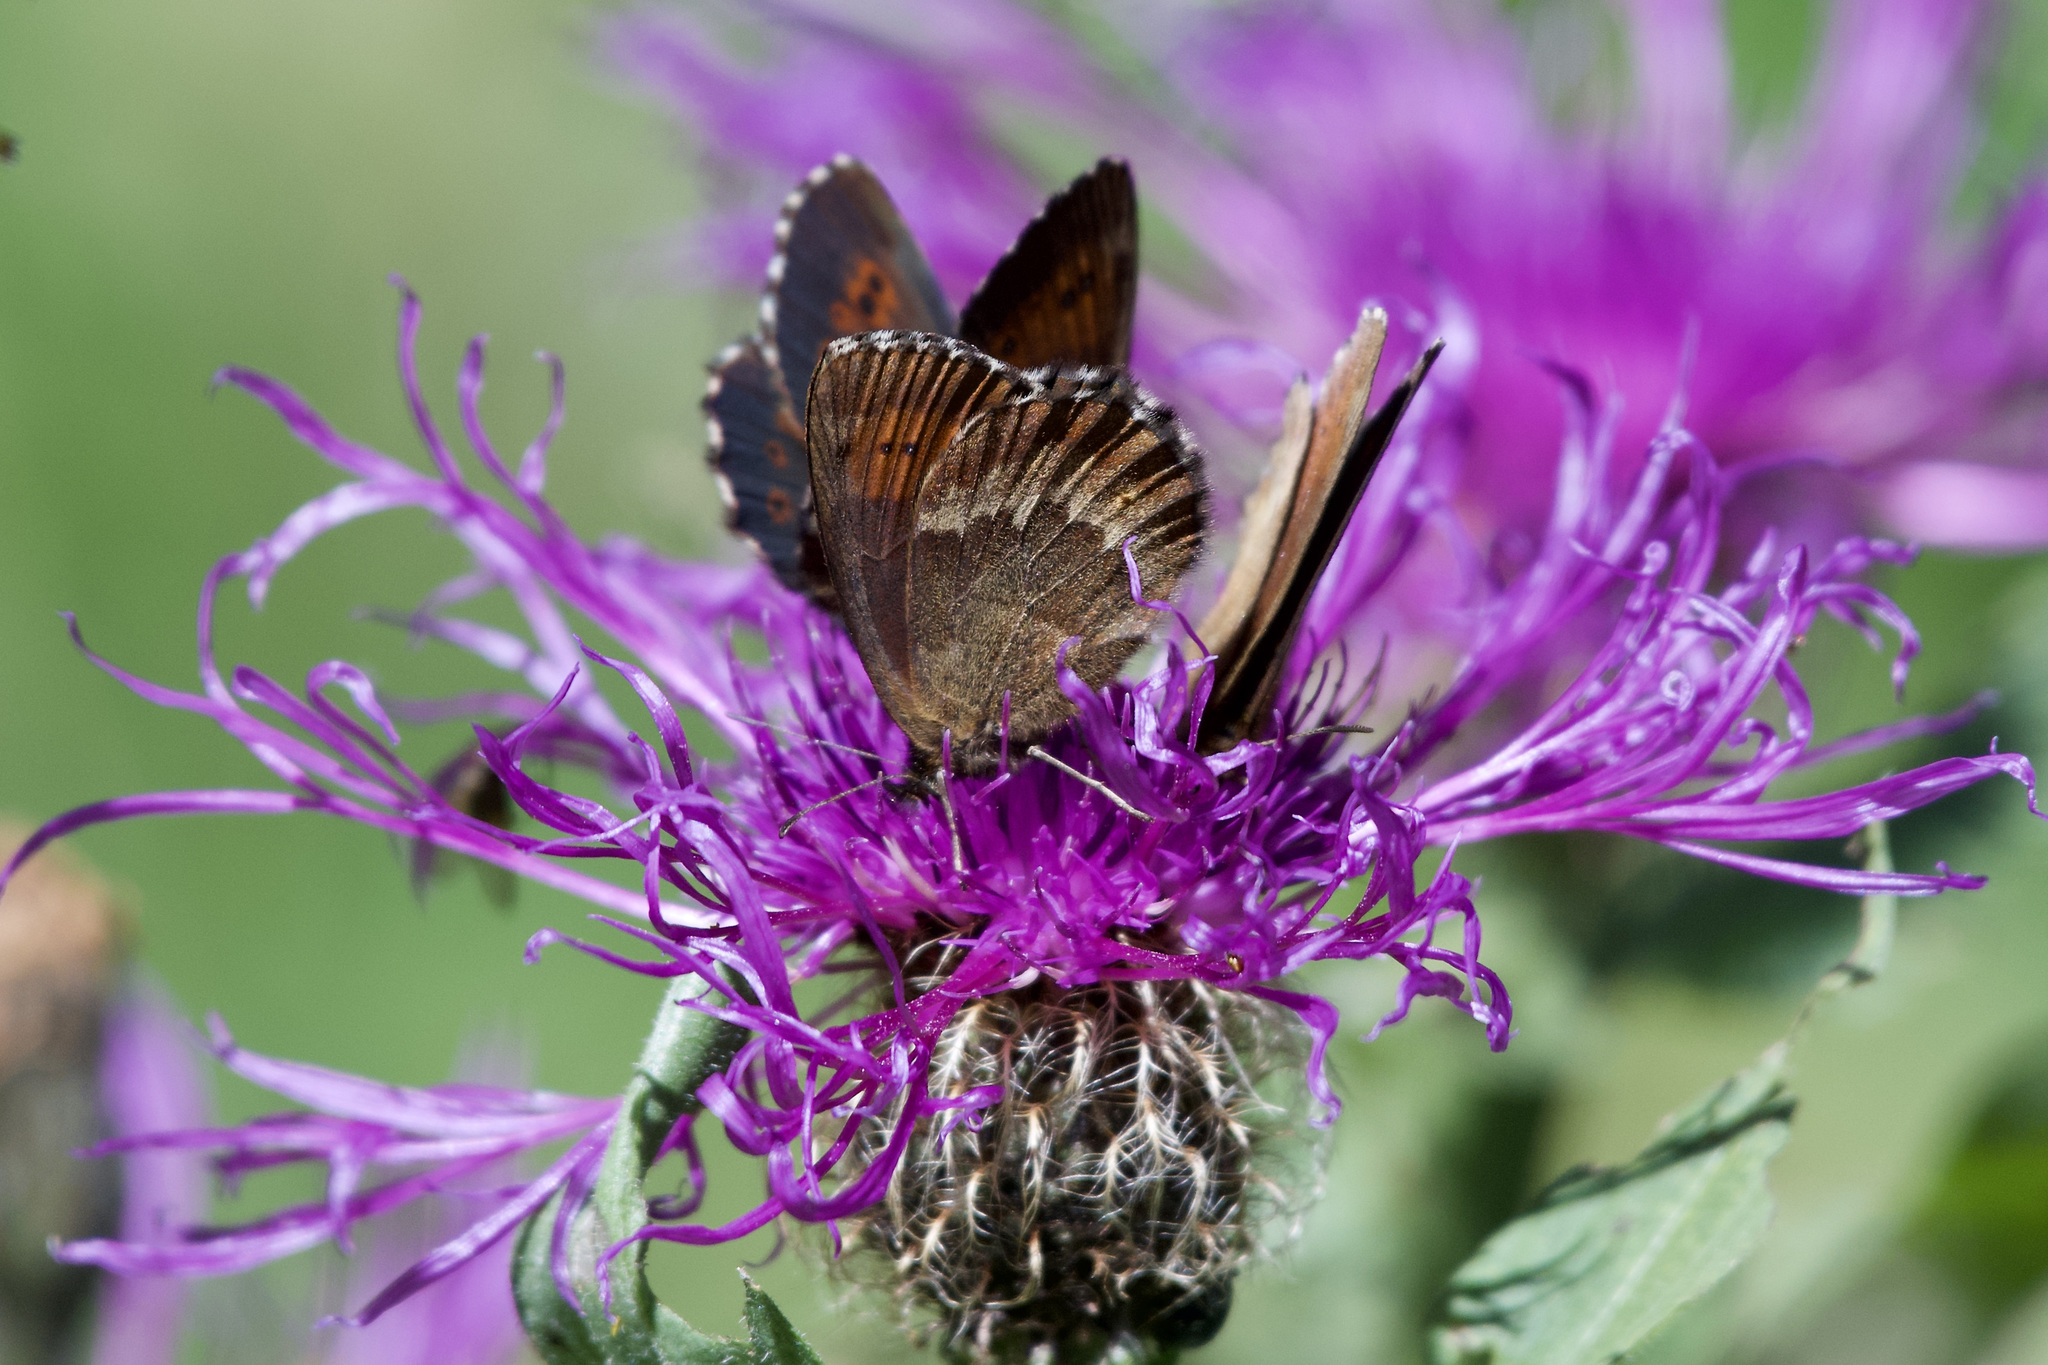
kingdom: Animalia
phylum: Arthropoda
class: Insecta
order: Lepidoptera
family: Nymphalidae
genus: Erebia
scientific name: Erebia euryale
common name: Large ringlet
